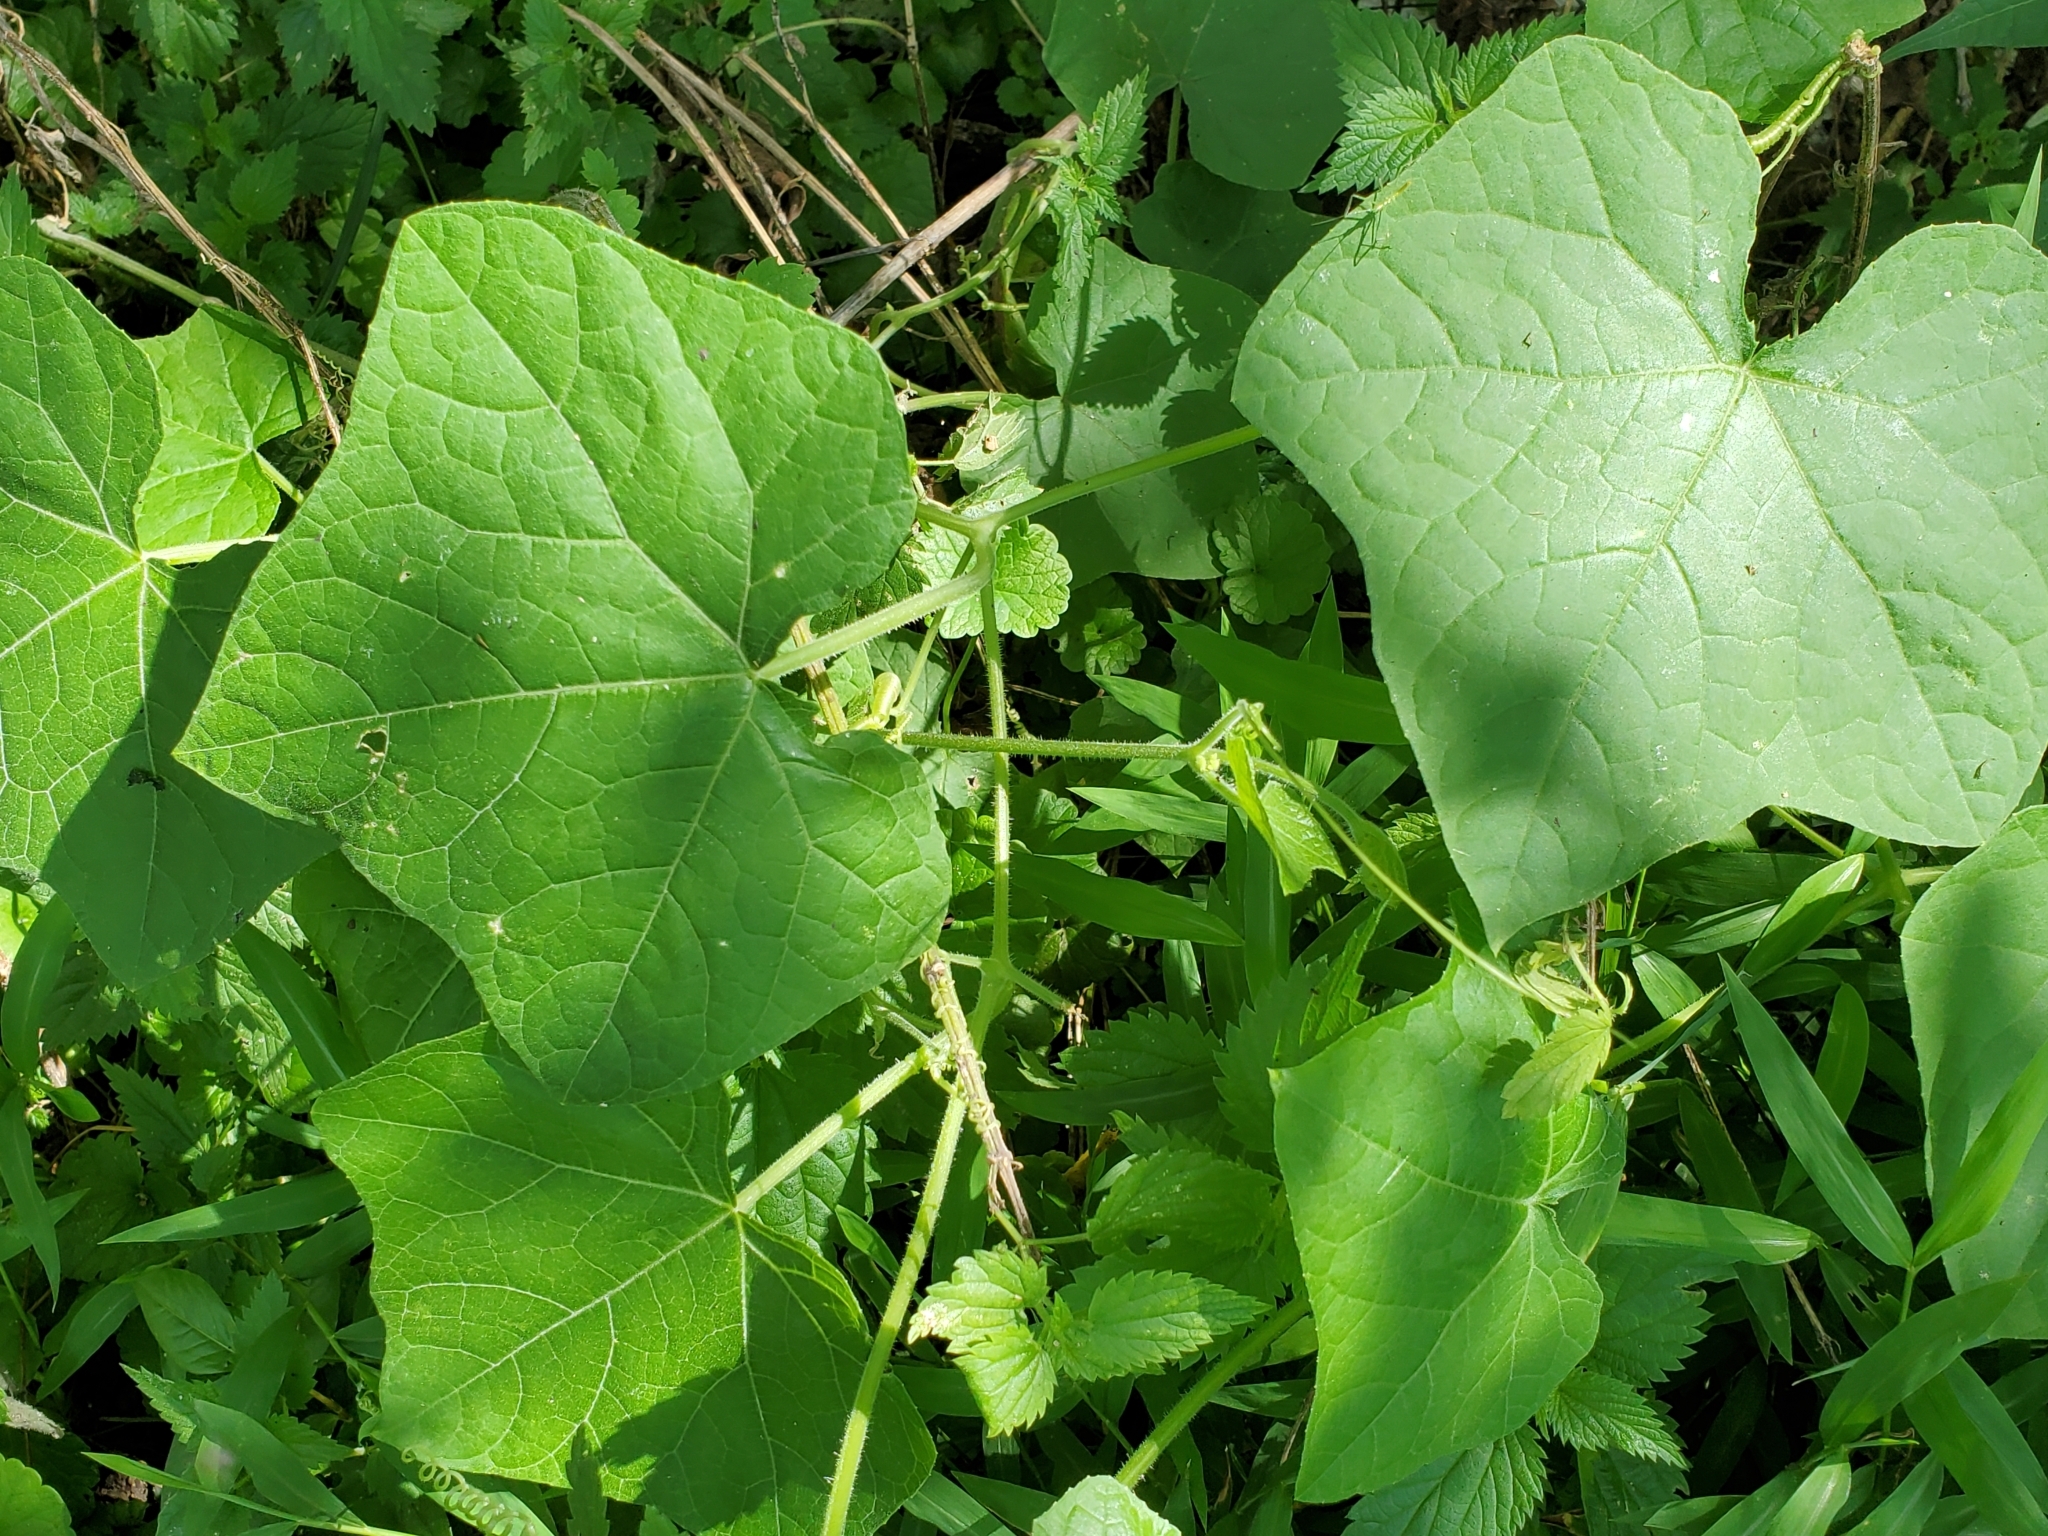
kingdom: Plantae
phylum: Tracheophyta
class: Magnoliopsida
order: Cucurbitales
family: Cucurbitaceae
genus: Sicyos
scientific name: Sicyos angulatus
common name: Angled burr cucumber
